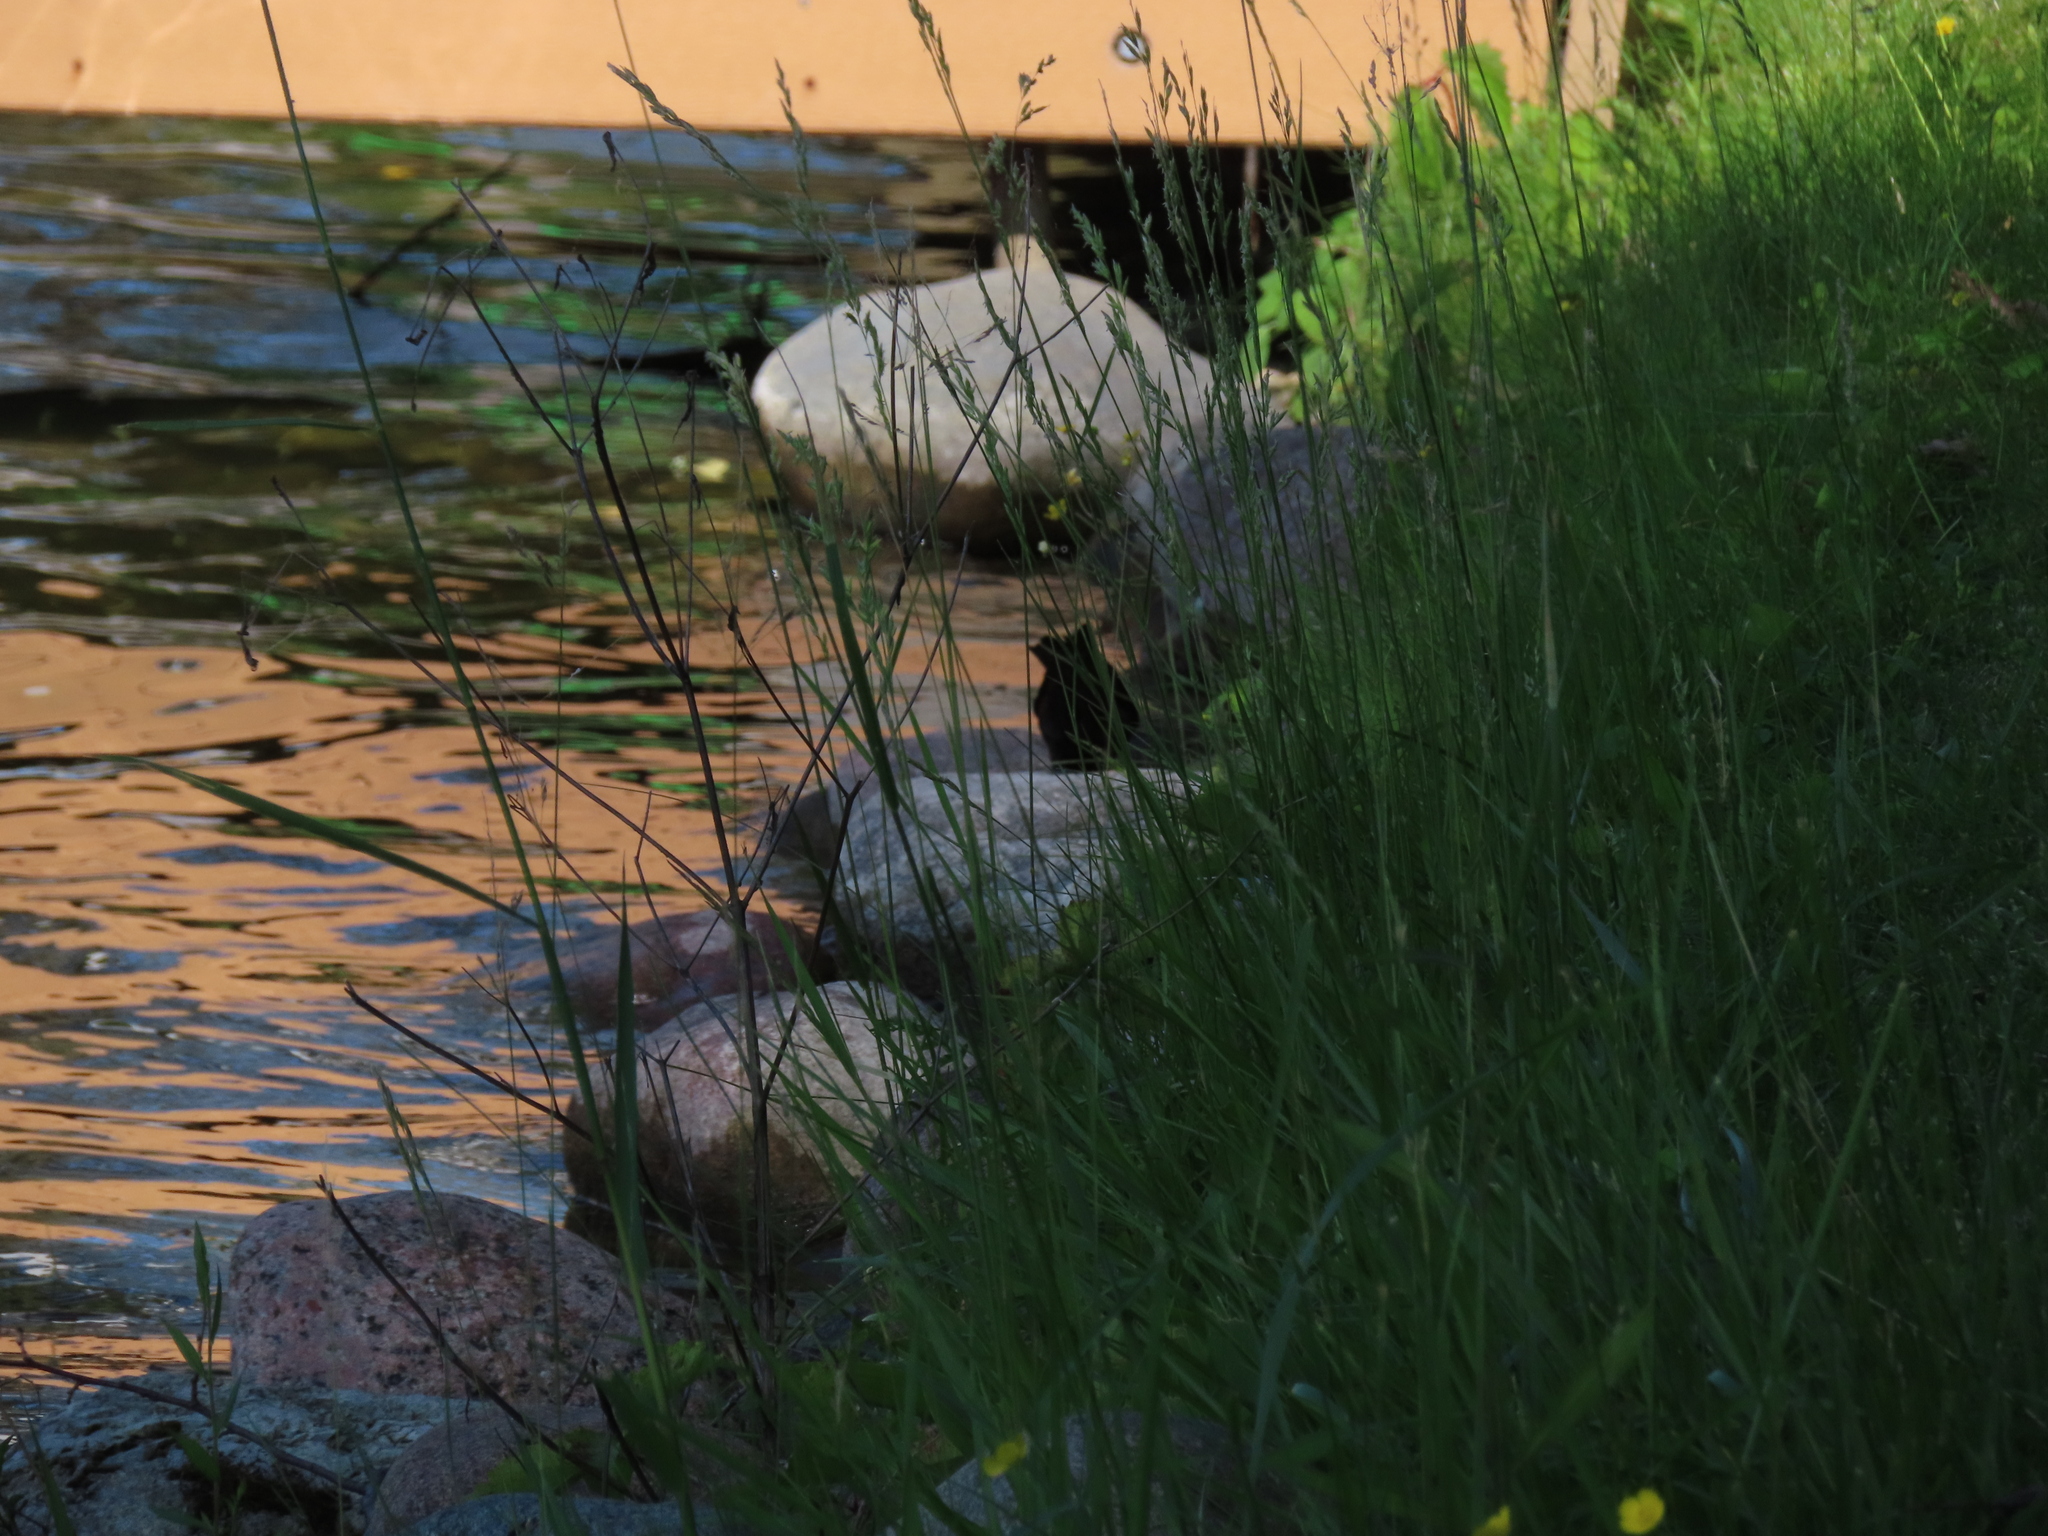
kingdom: Animalia
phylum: Chordata
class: Aves
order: Passeriformes
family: Icteridae
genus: Quiscalus
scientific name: Quiscalus quiscula
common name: Common grackle
